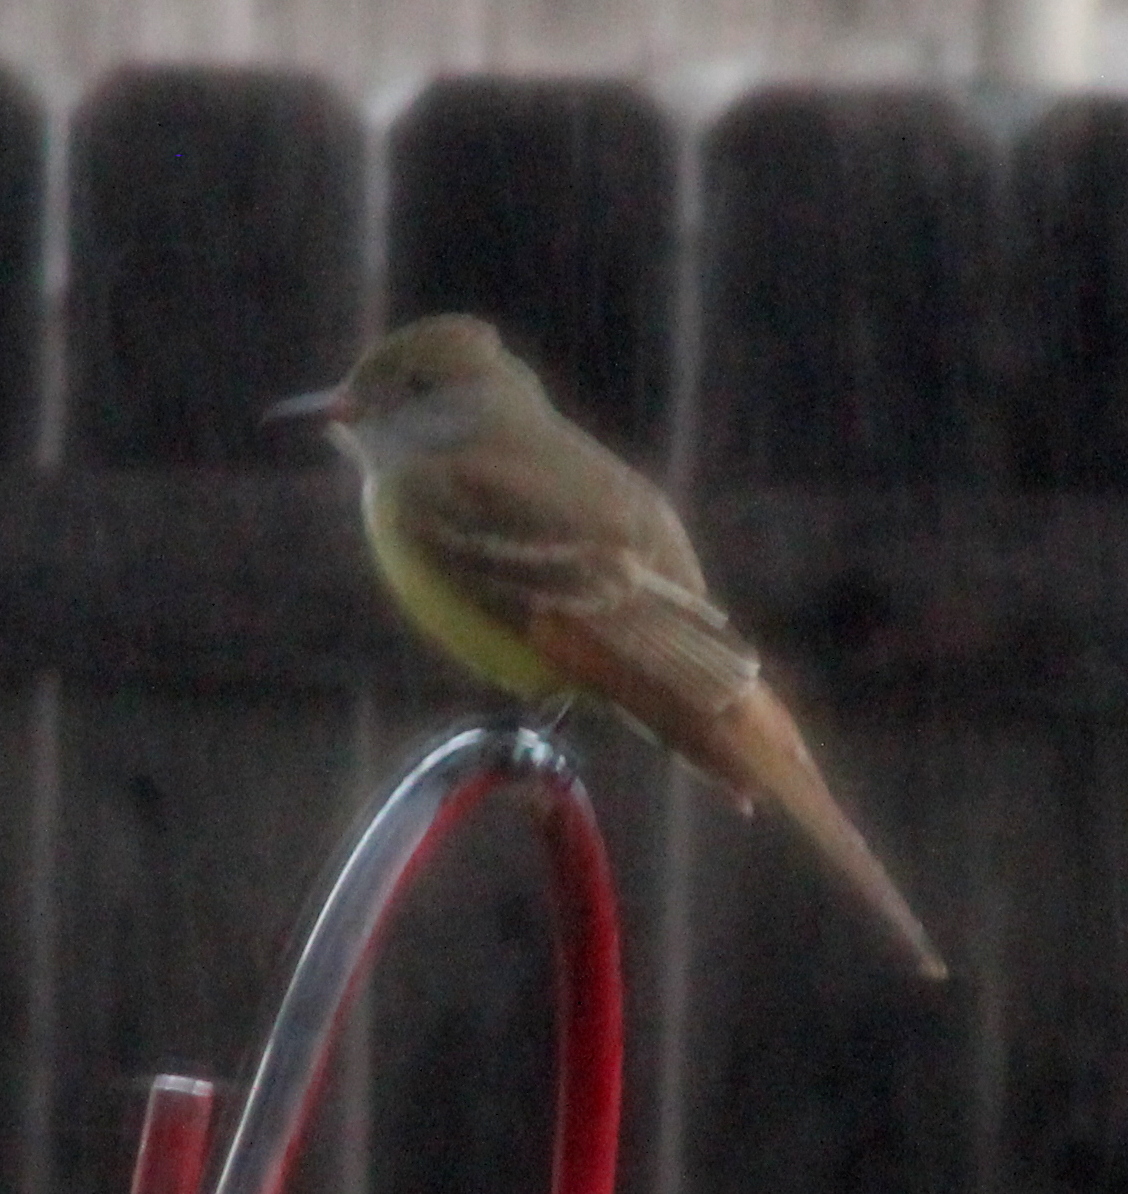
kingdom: Animalia
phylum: Chordata
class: Aves
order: Passeriformes
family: Tyrannidae
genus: Myiarchus
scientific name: Myiarchus crinitus
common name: Great crested flycatcher
